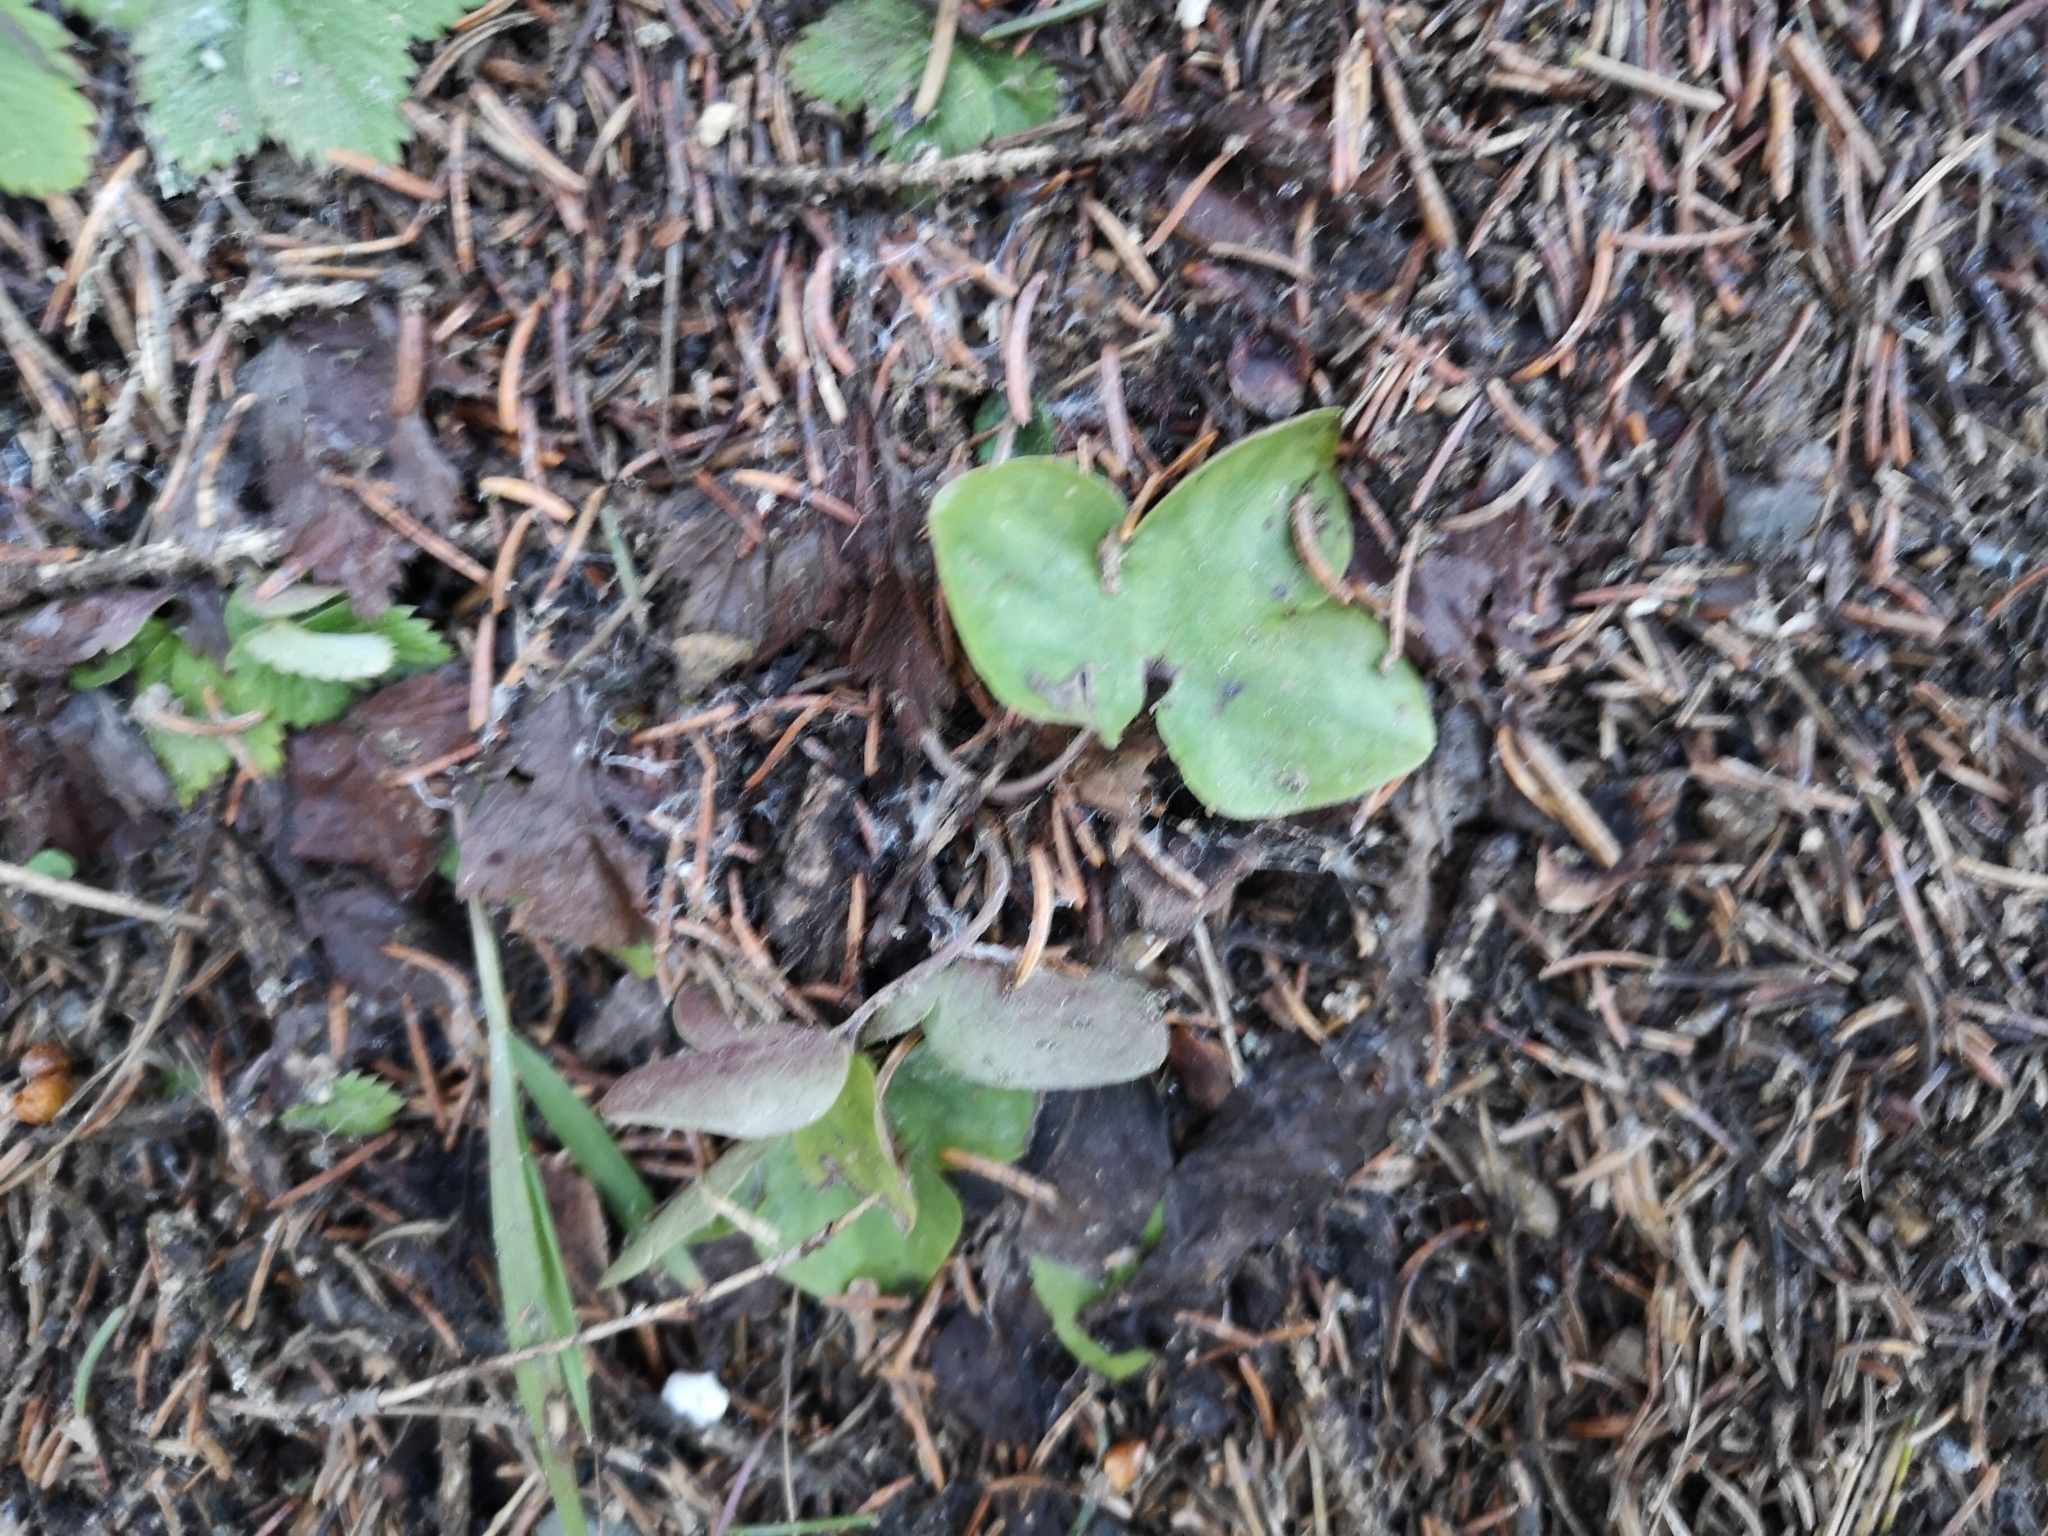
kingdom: Plantae
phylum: Tracheophyta
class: Magnoliopsida
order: Ranunculales
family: Ranunculaceae
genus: Hepatica
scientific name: Hepatica nobilis
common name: Liverleaf
